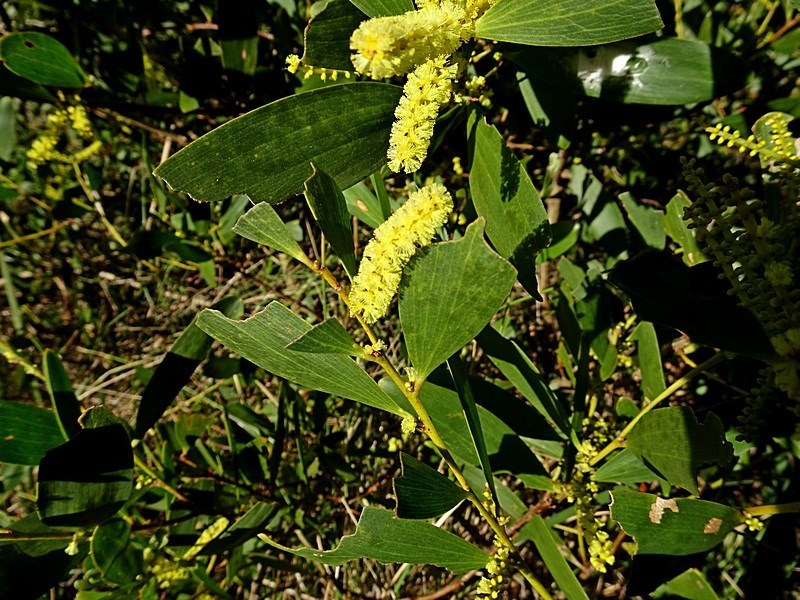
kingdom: Plantae
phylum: Tracheophyta
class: Magnoliopsida
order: Fabales
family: Fabaceae
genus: Acacia
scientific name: Acacia longifolia
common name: Sydney golden wattle
